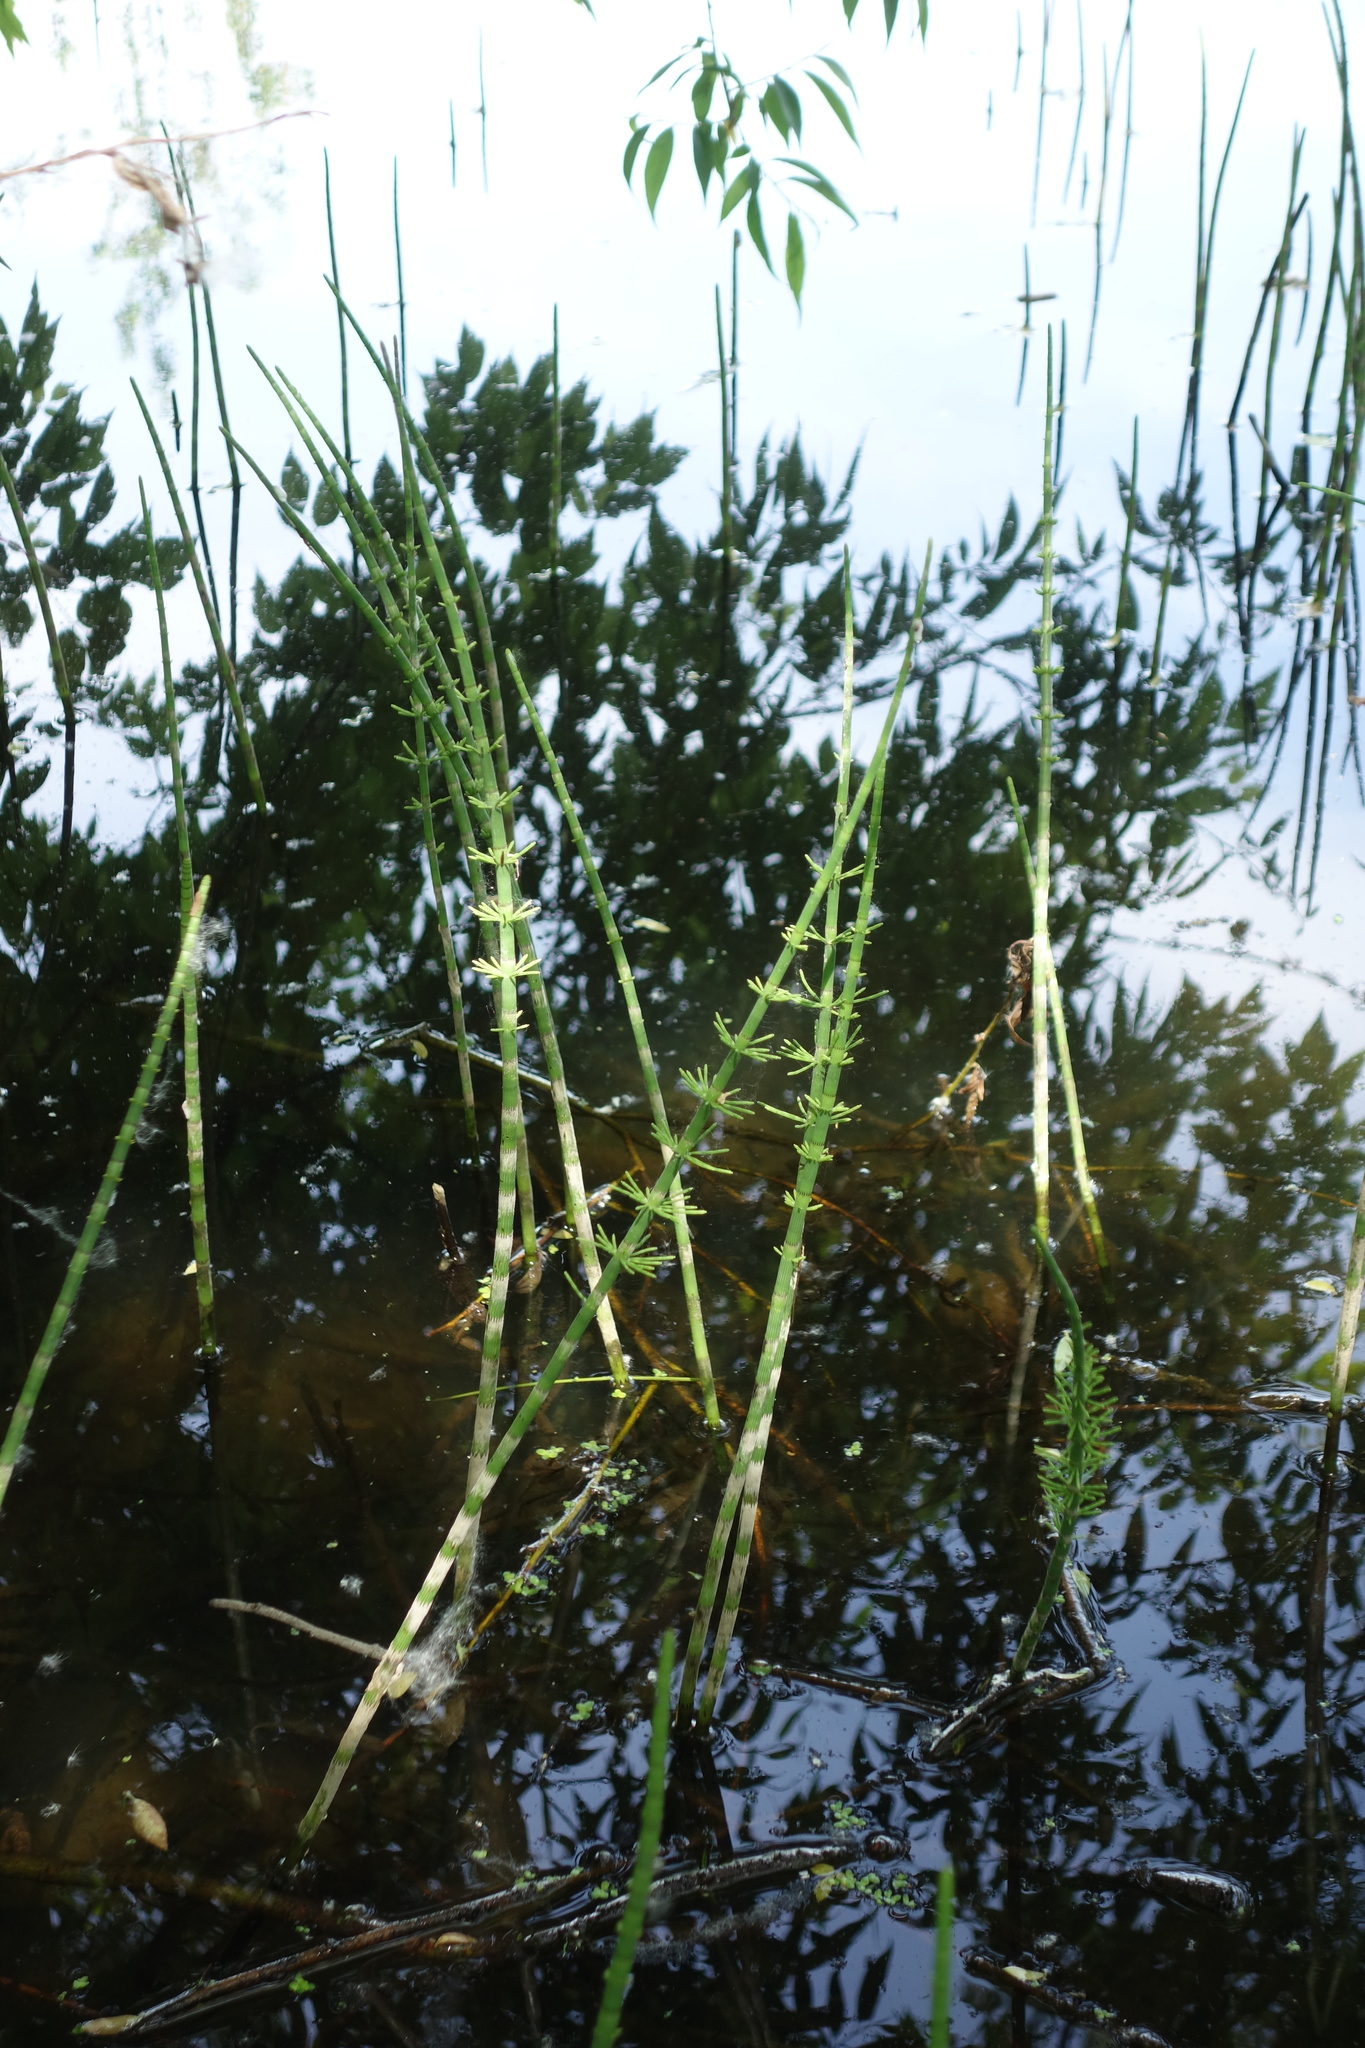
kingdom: Plantae
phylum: Tracheophyta
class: Polypodiopsida
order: Equisetales
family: Equisetaceae
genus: Equisetum
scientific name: Equisetum fluviatile
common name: Water horsetail
